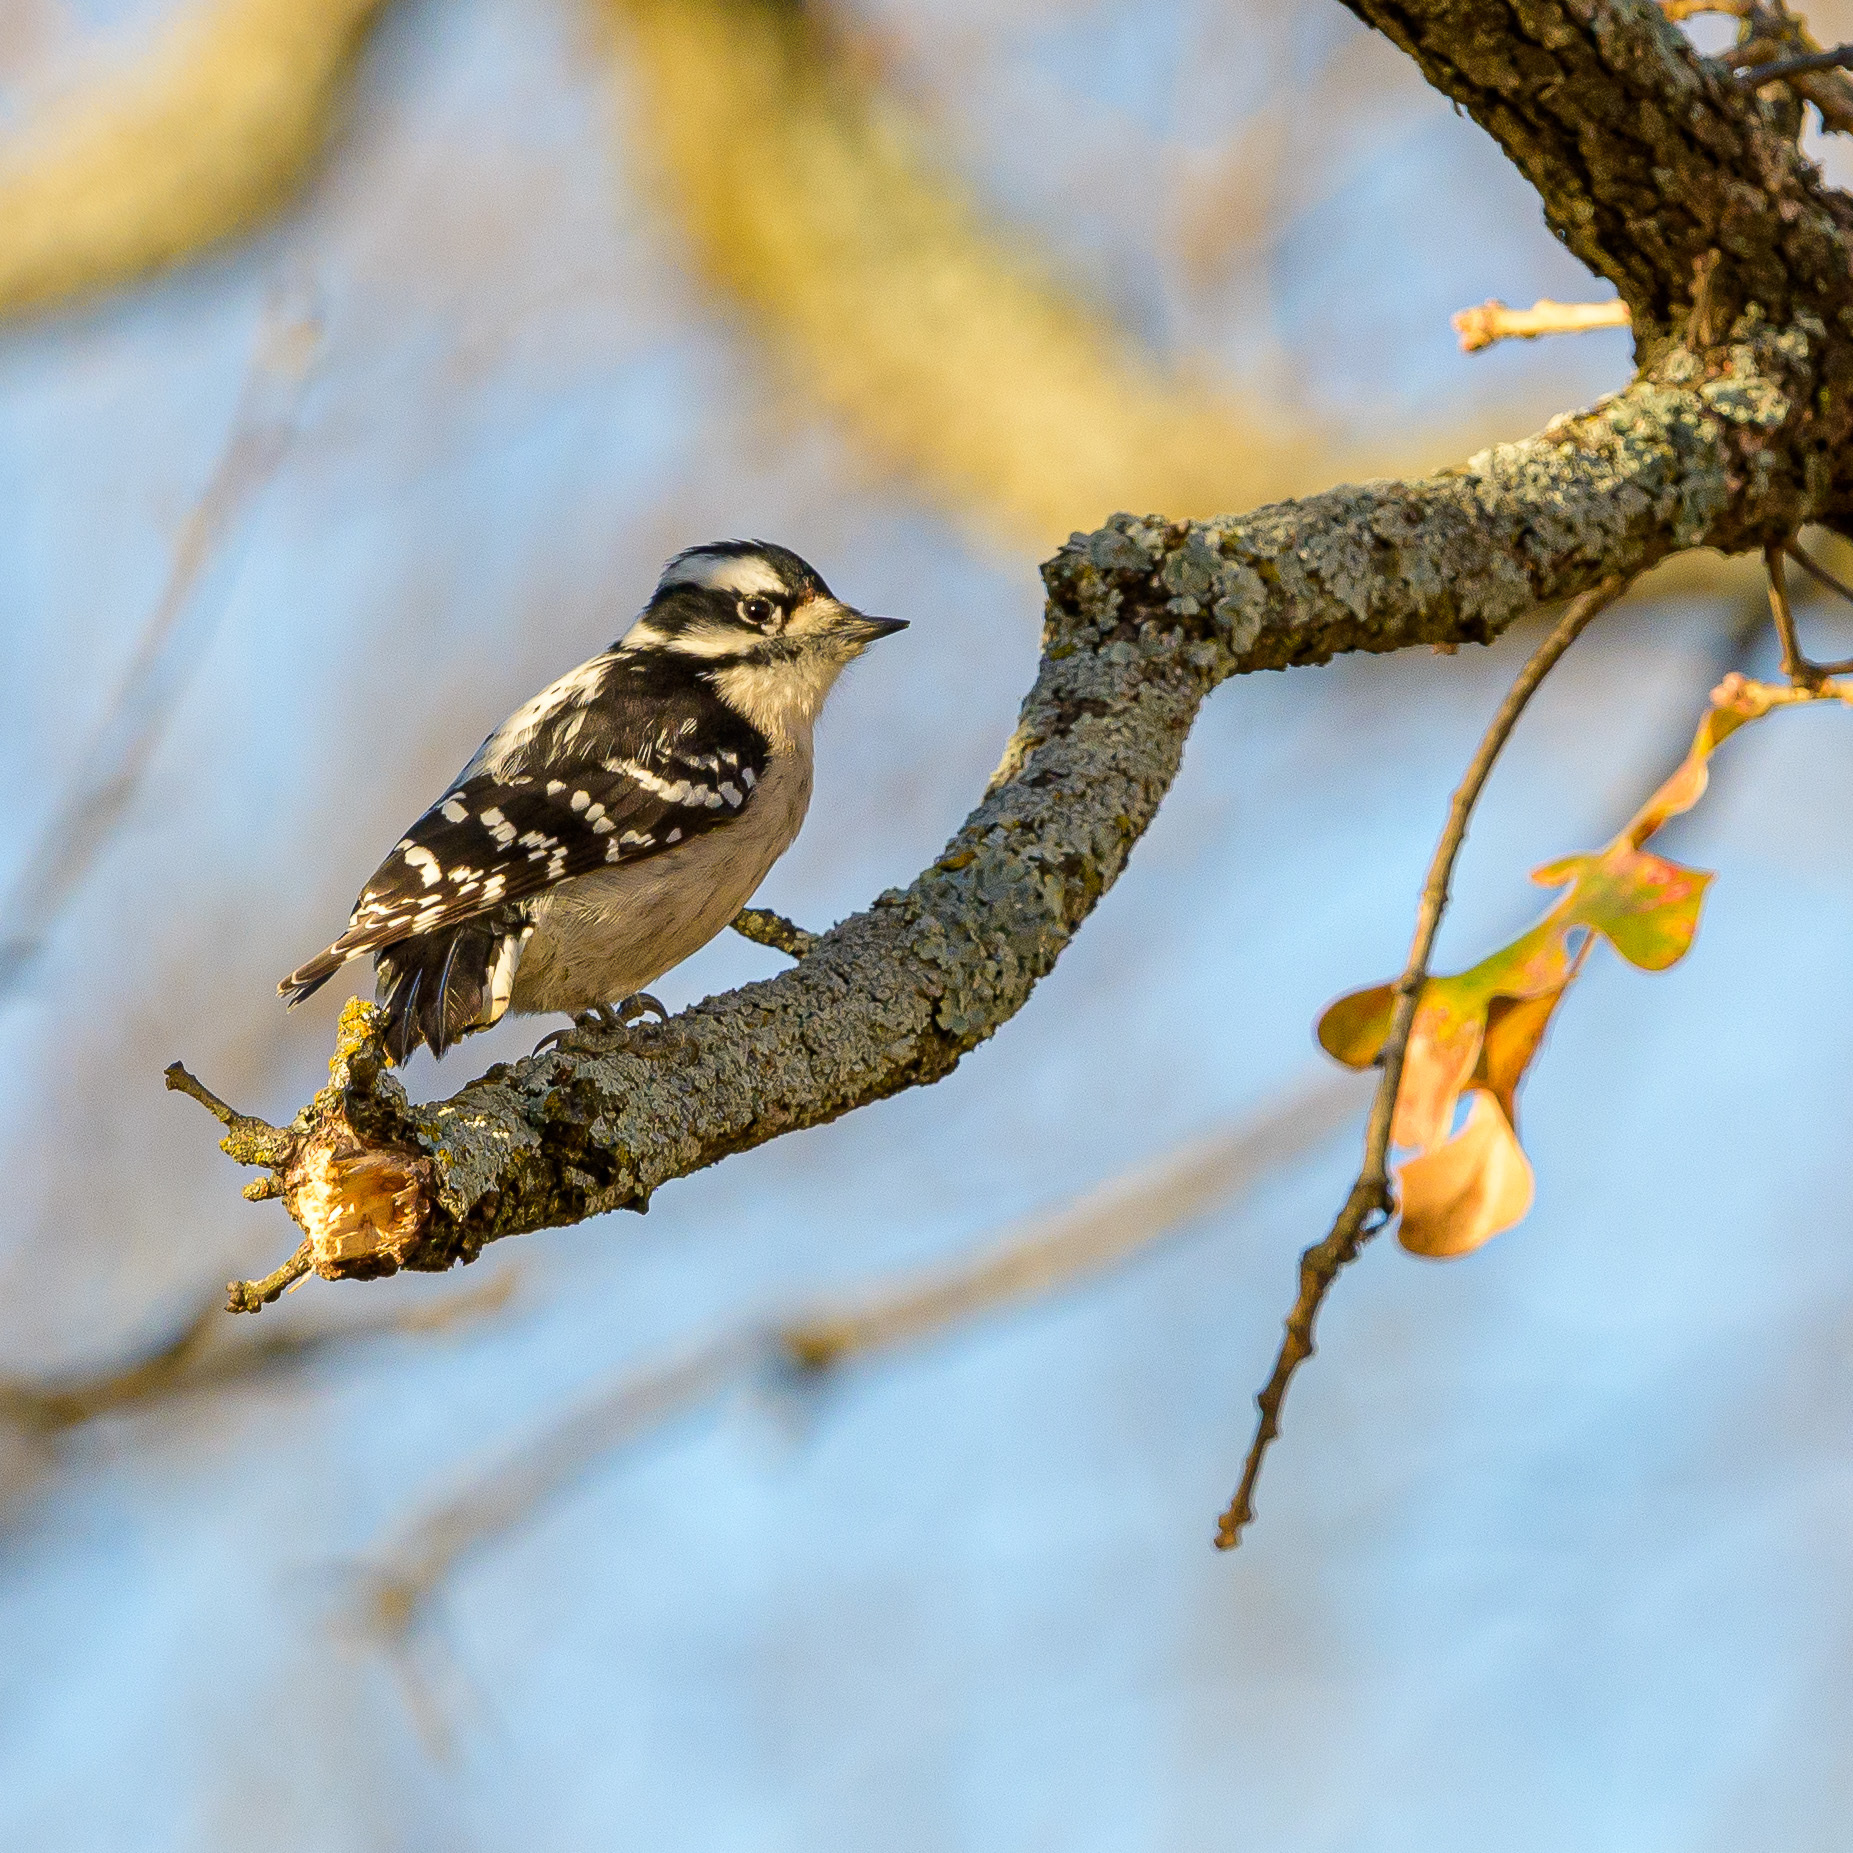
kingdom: Animalia
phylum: Chordata
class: Aves
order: Piciformes
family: Picidae
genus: Dryobates
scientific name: Dryobates pubescens
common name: Downy woodpecker
